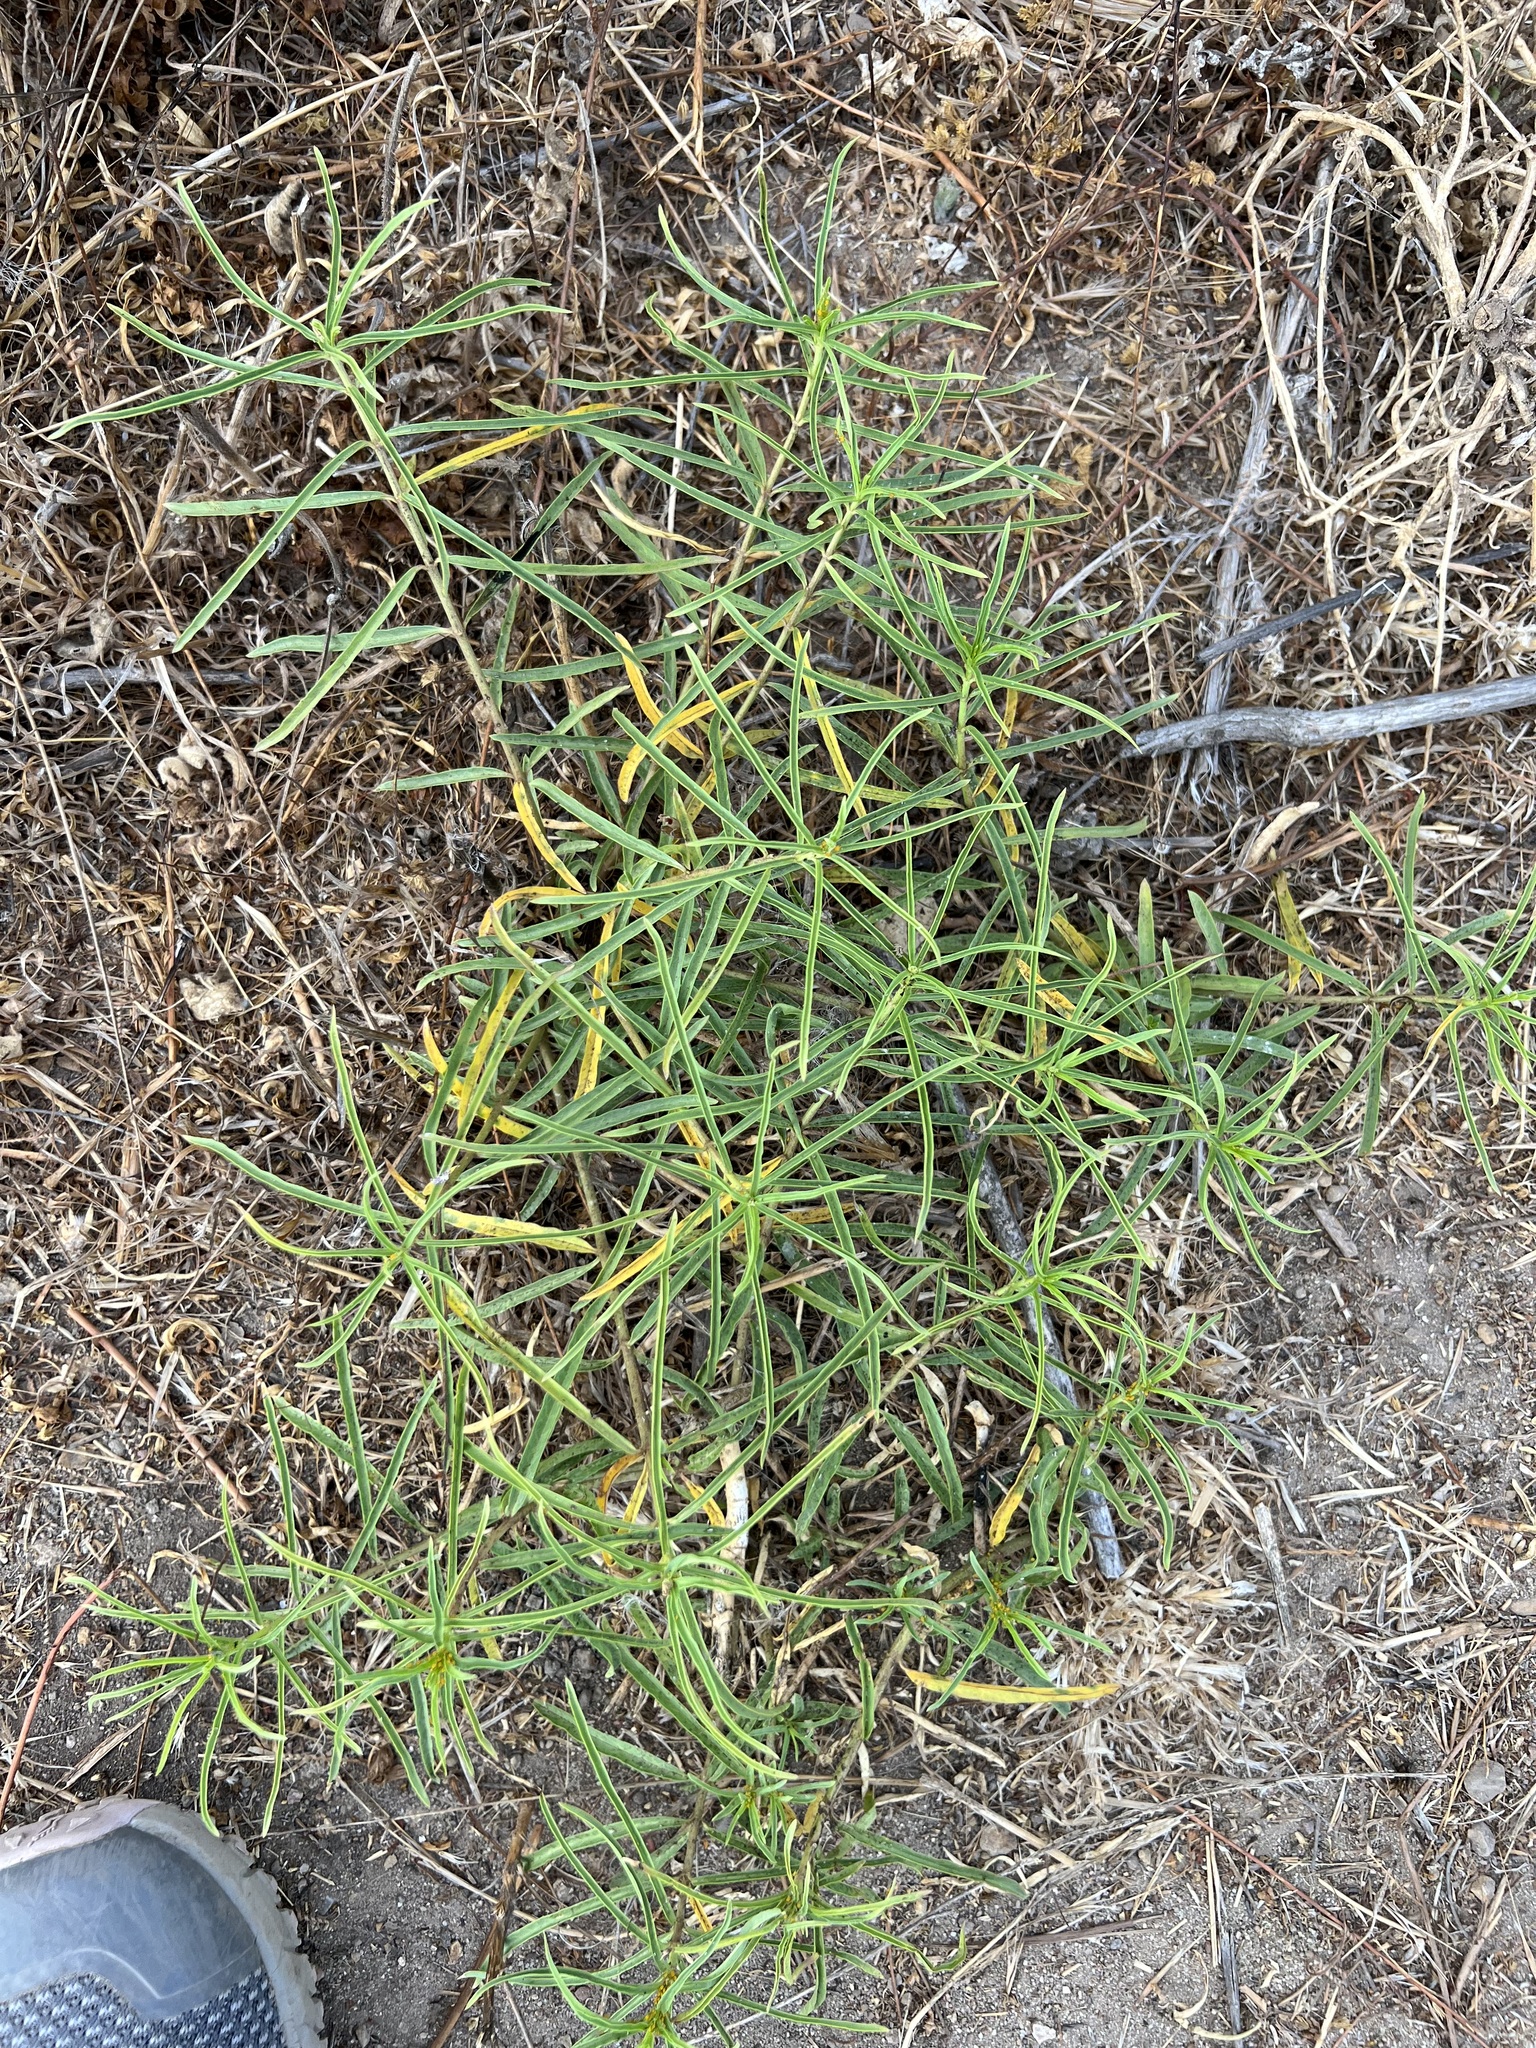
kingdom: Plantae
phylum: Tracheophyta
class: Magnoliopsida
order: Gentianales
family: Apocynaceae
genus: Asclepias
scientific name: Asclepias fascicularis
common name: Mexican milkweed
